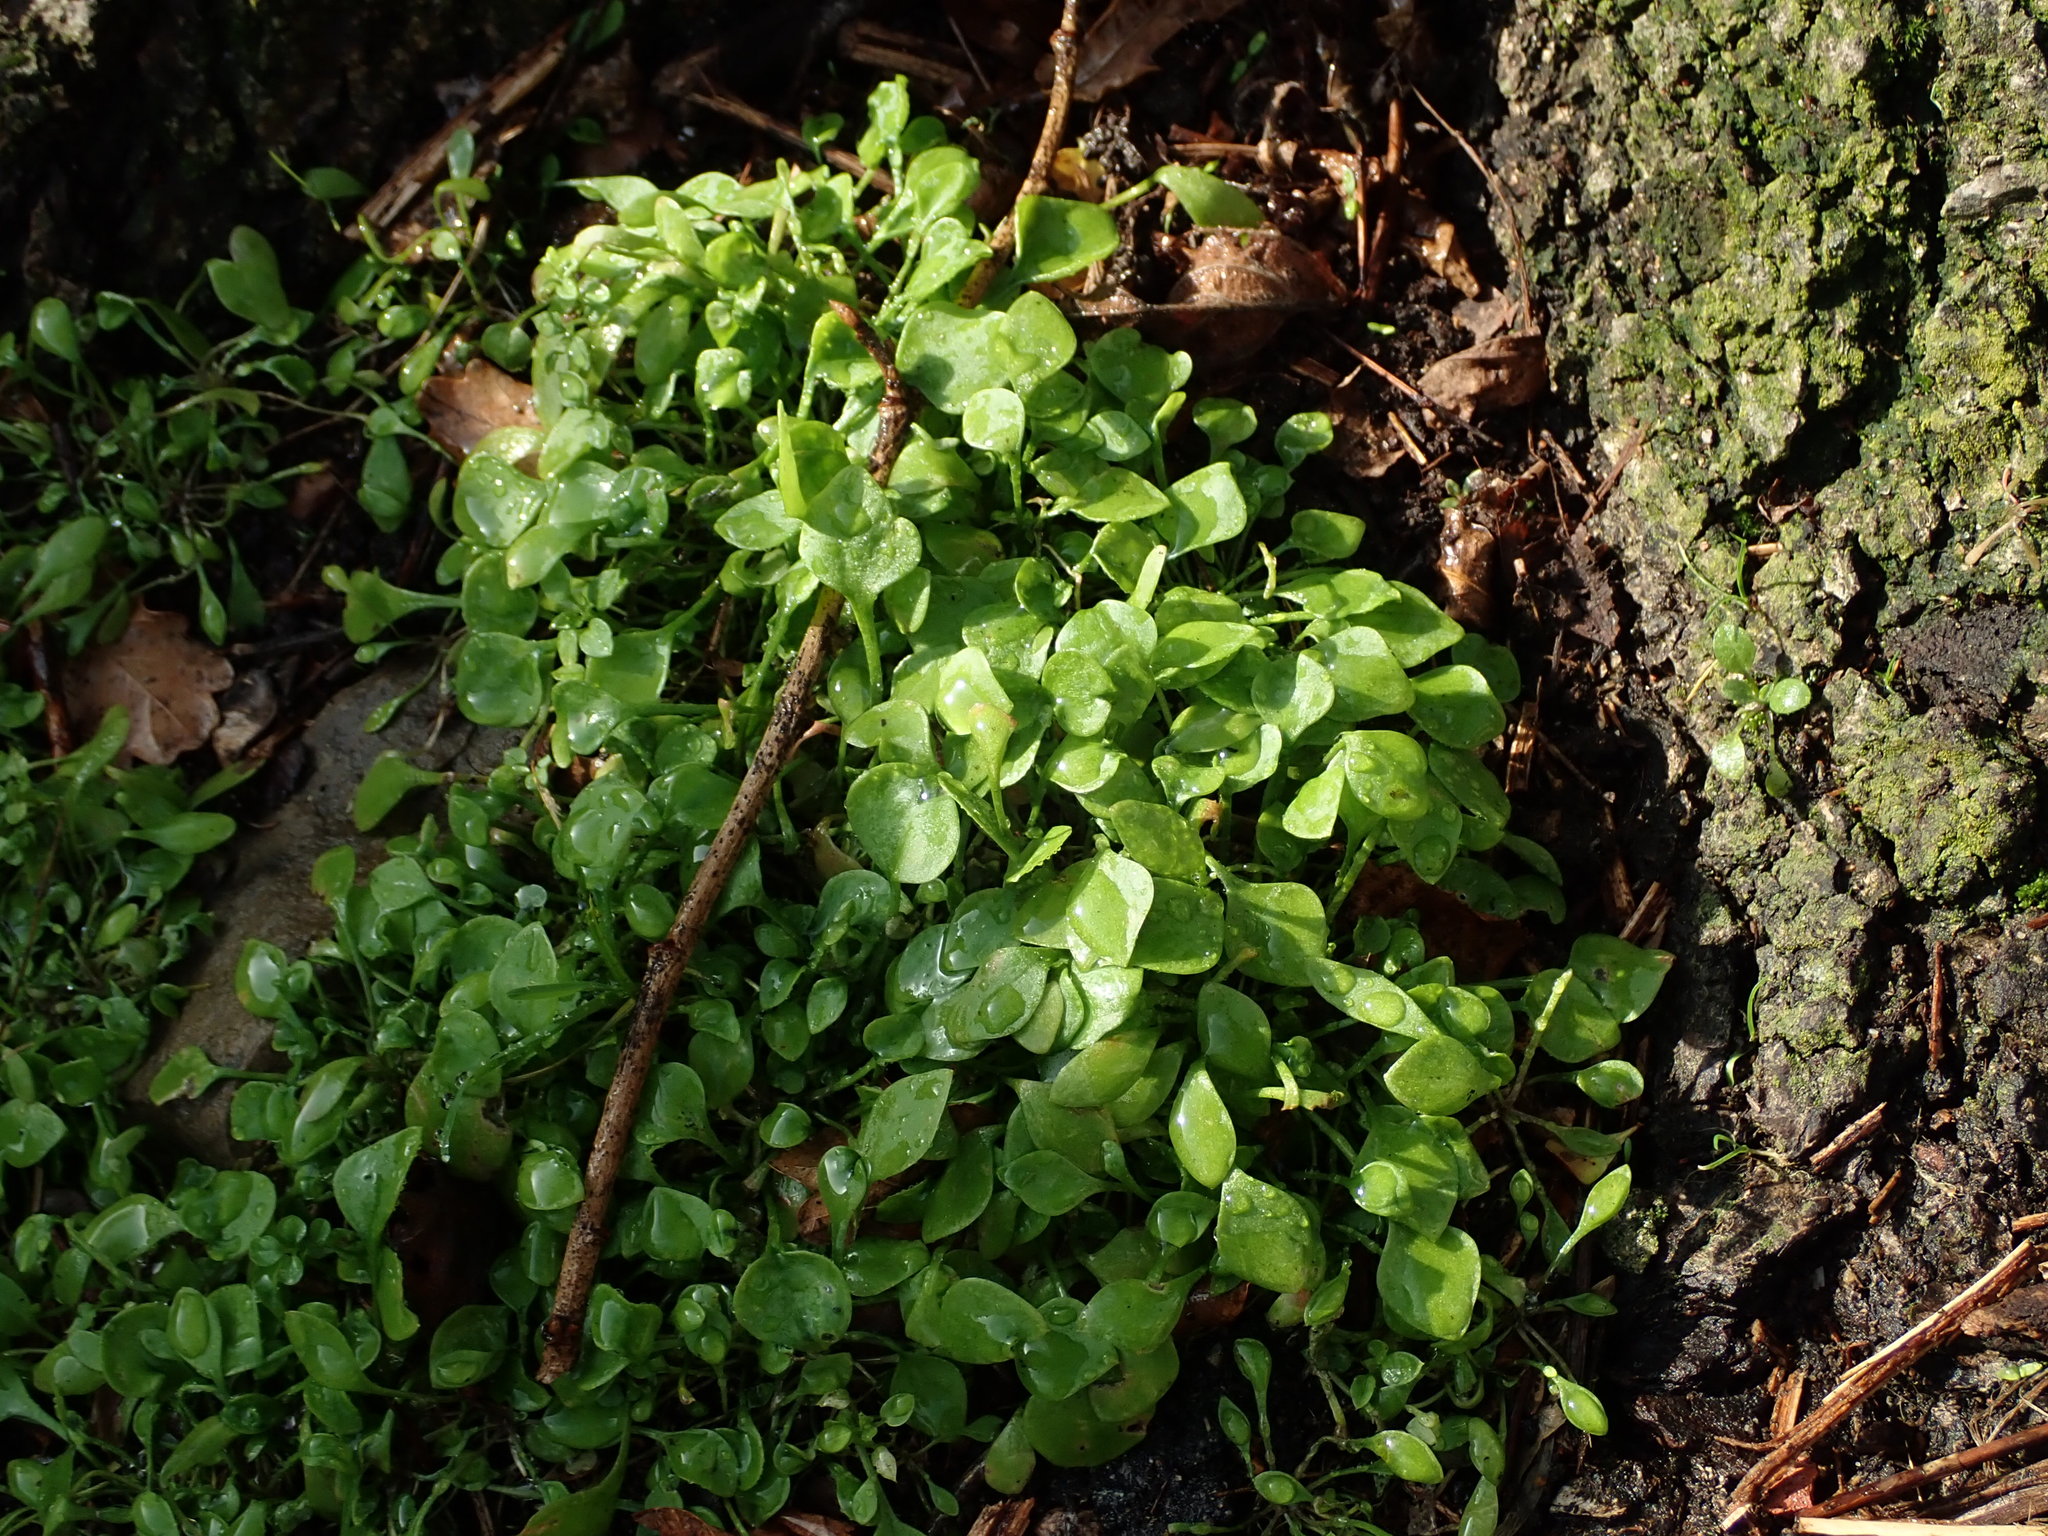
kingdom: Plantae
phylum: Tracheophyta
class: Magnoliopsida
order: Caryophyllales
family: Montiaceae
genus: Claytonia
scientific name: Claytonia perfoliata
